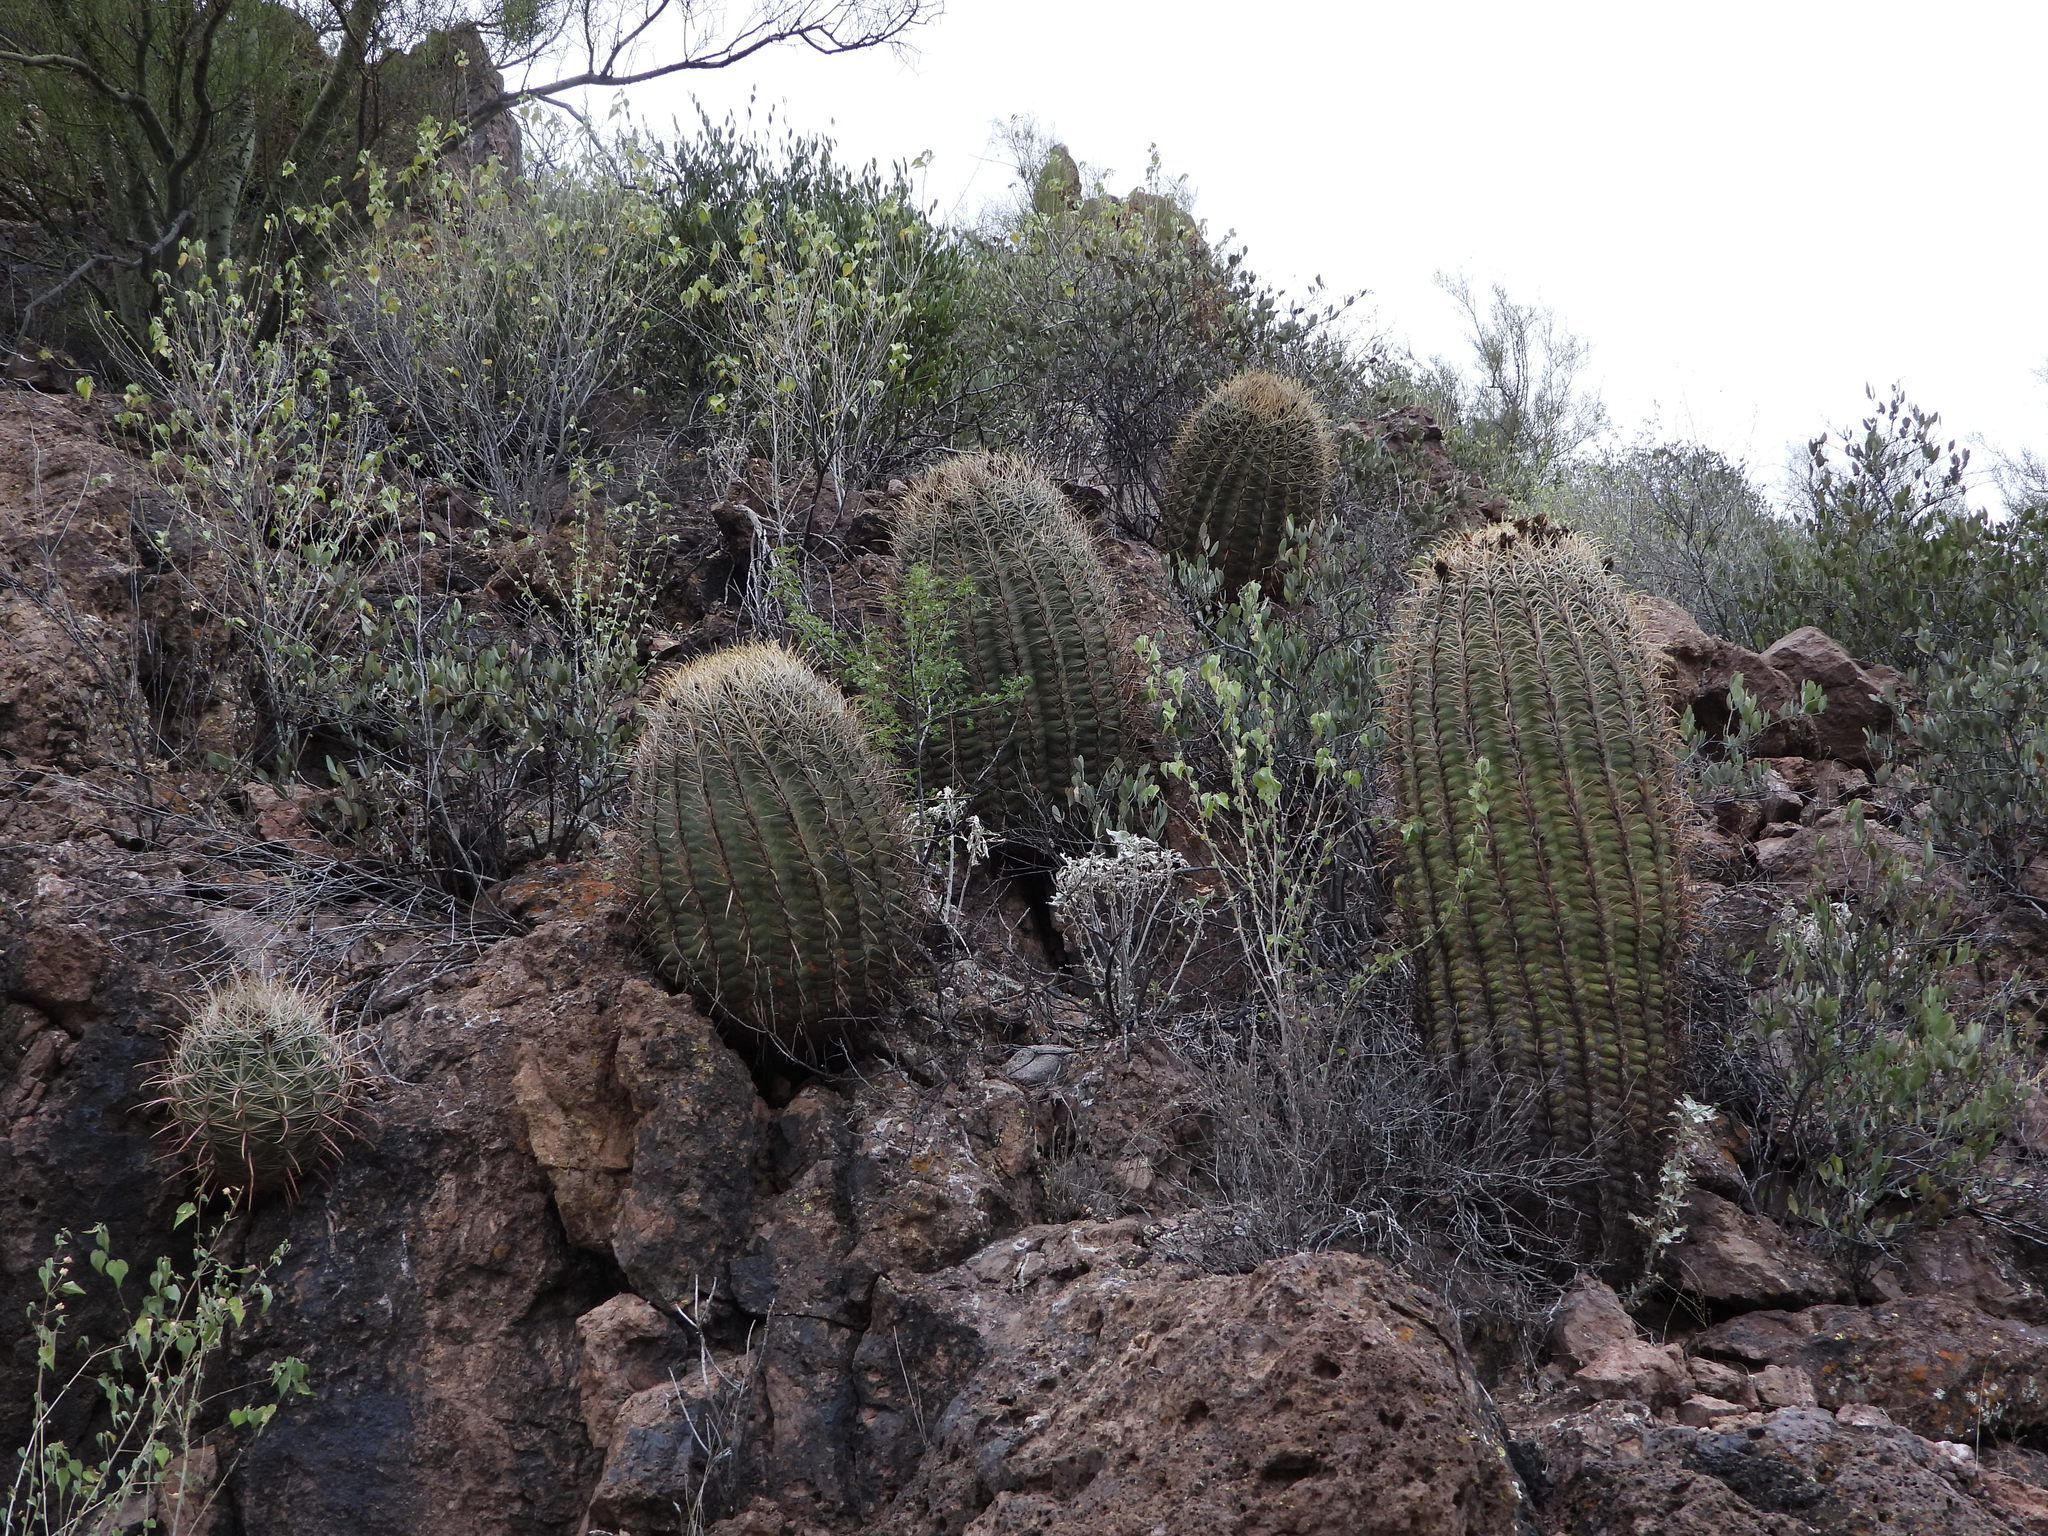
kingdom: Plantae
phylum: Tracheophyta
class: Magnoliopsida
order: Caryophyllales
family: Cactaceae
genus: Ferocactus
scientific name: Ferocactus cylindraceus
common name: California barrel cactus
